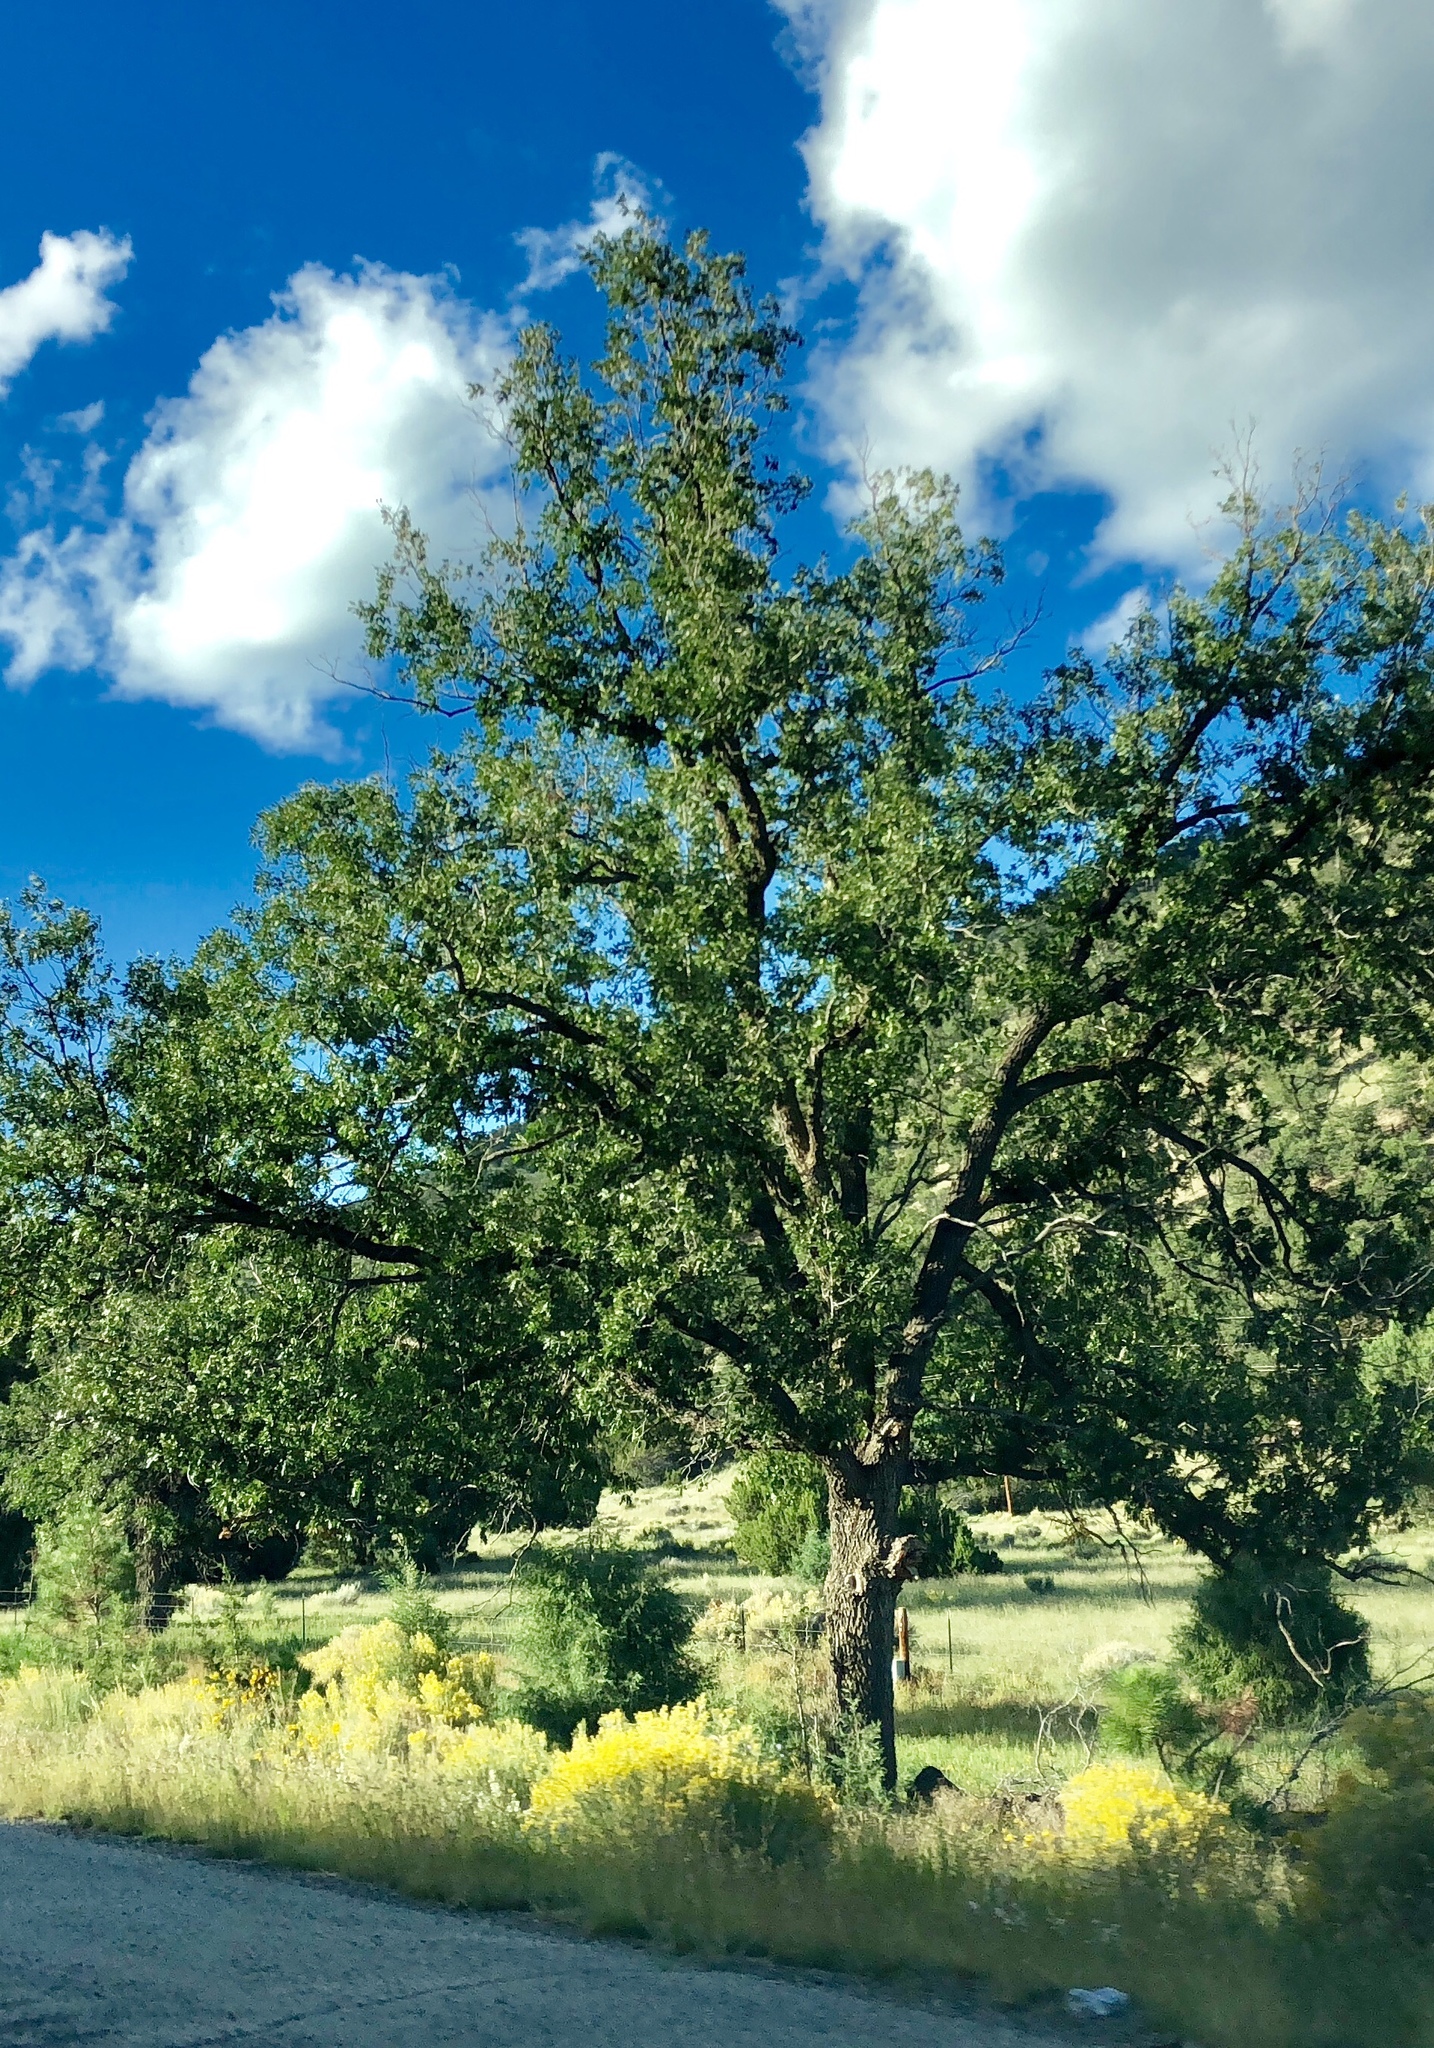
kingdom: Plantae
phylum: Tracheophyta
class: Magnoliopsida
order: Fagales
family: Fagaceae
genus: Quercus
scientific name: Quercus gambelii
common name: Gambel oak
